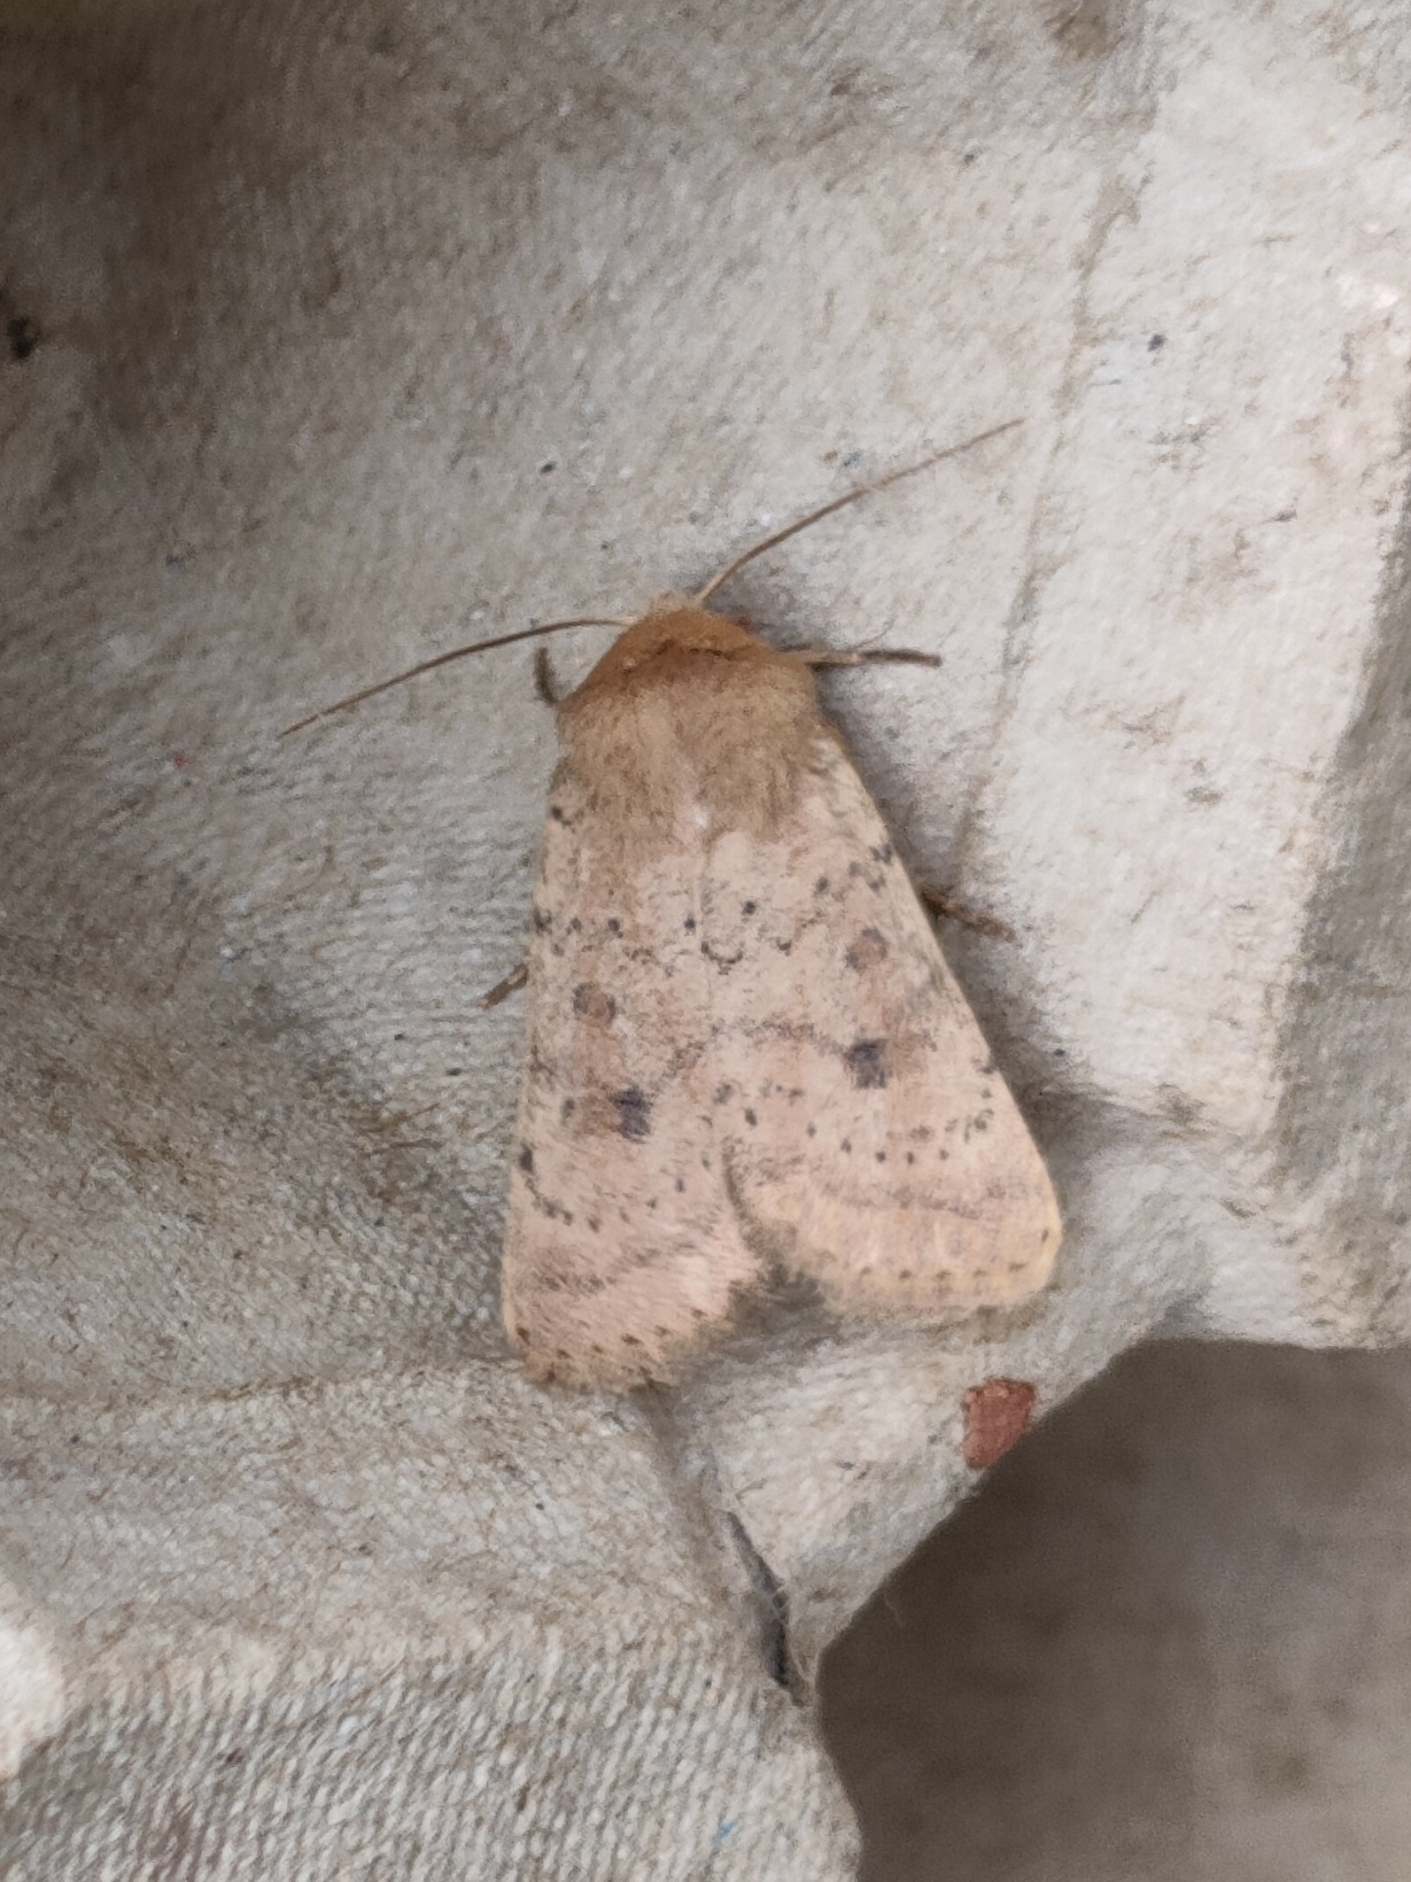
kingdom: Animalia
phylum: Arthropoda
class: Insecta
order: Lepidoptera
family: Noctuidae
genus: Hoplodrina
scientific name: Hoplodrina octogenaria
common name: Uncertain
